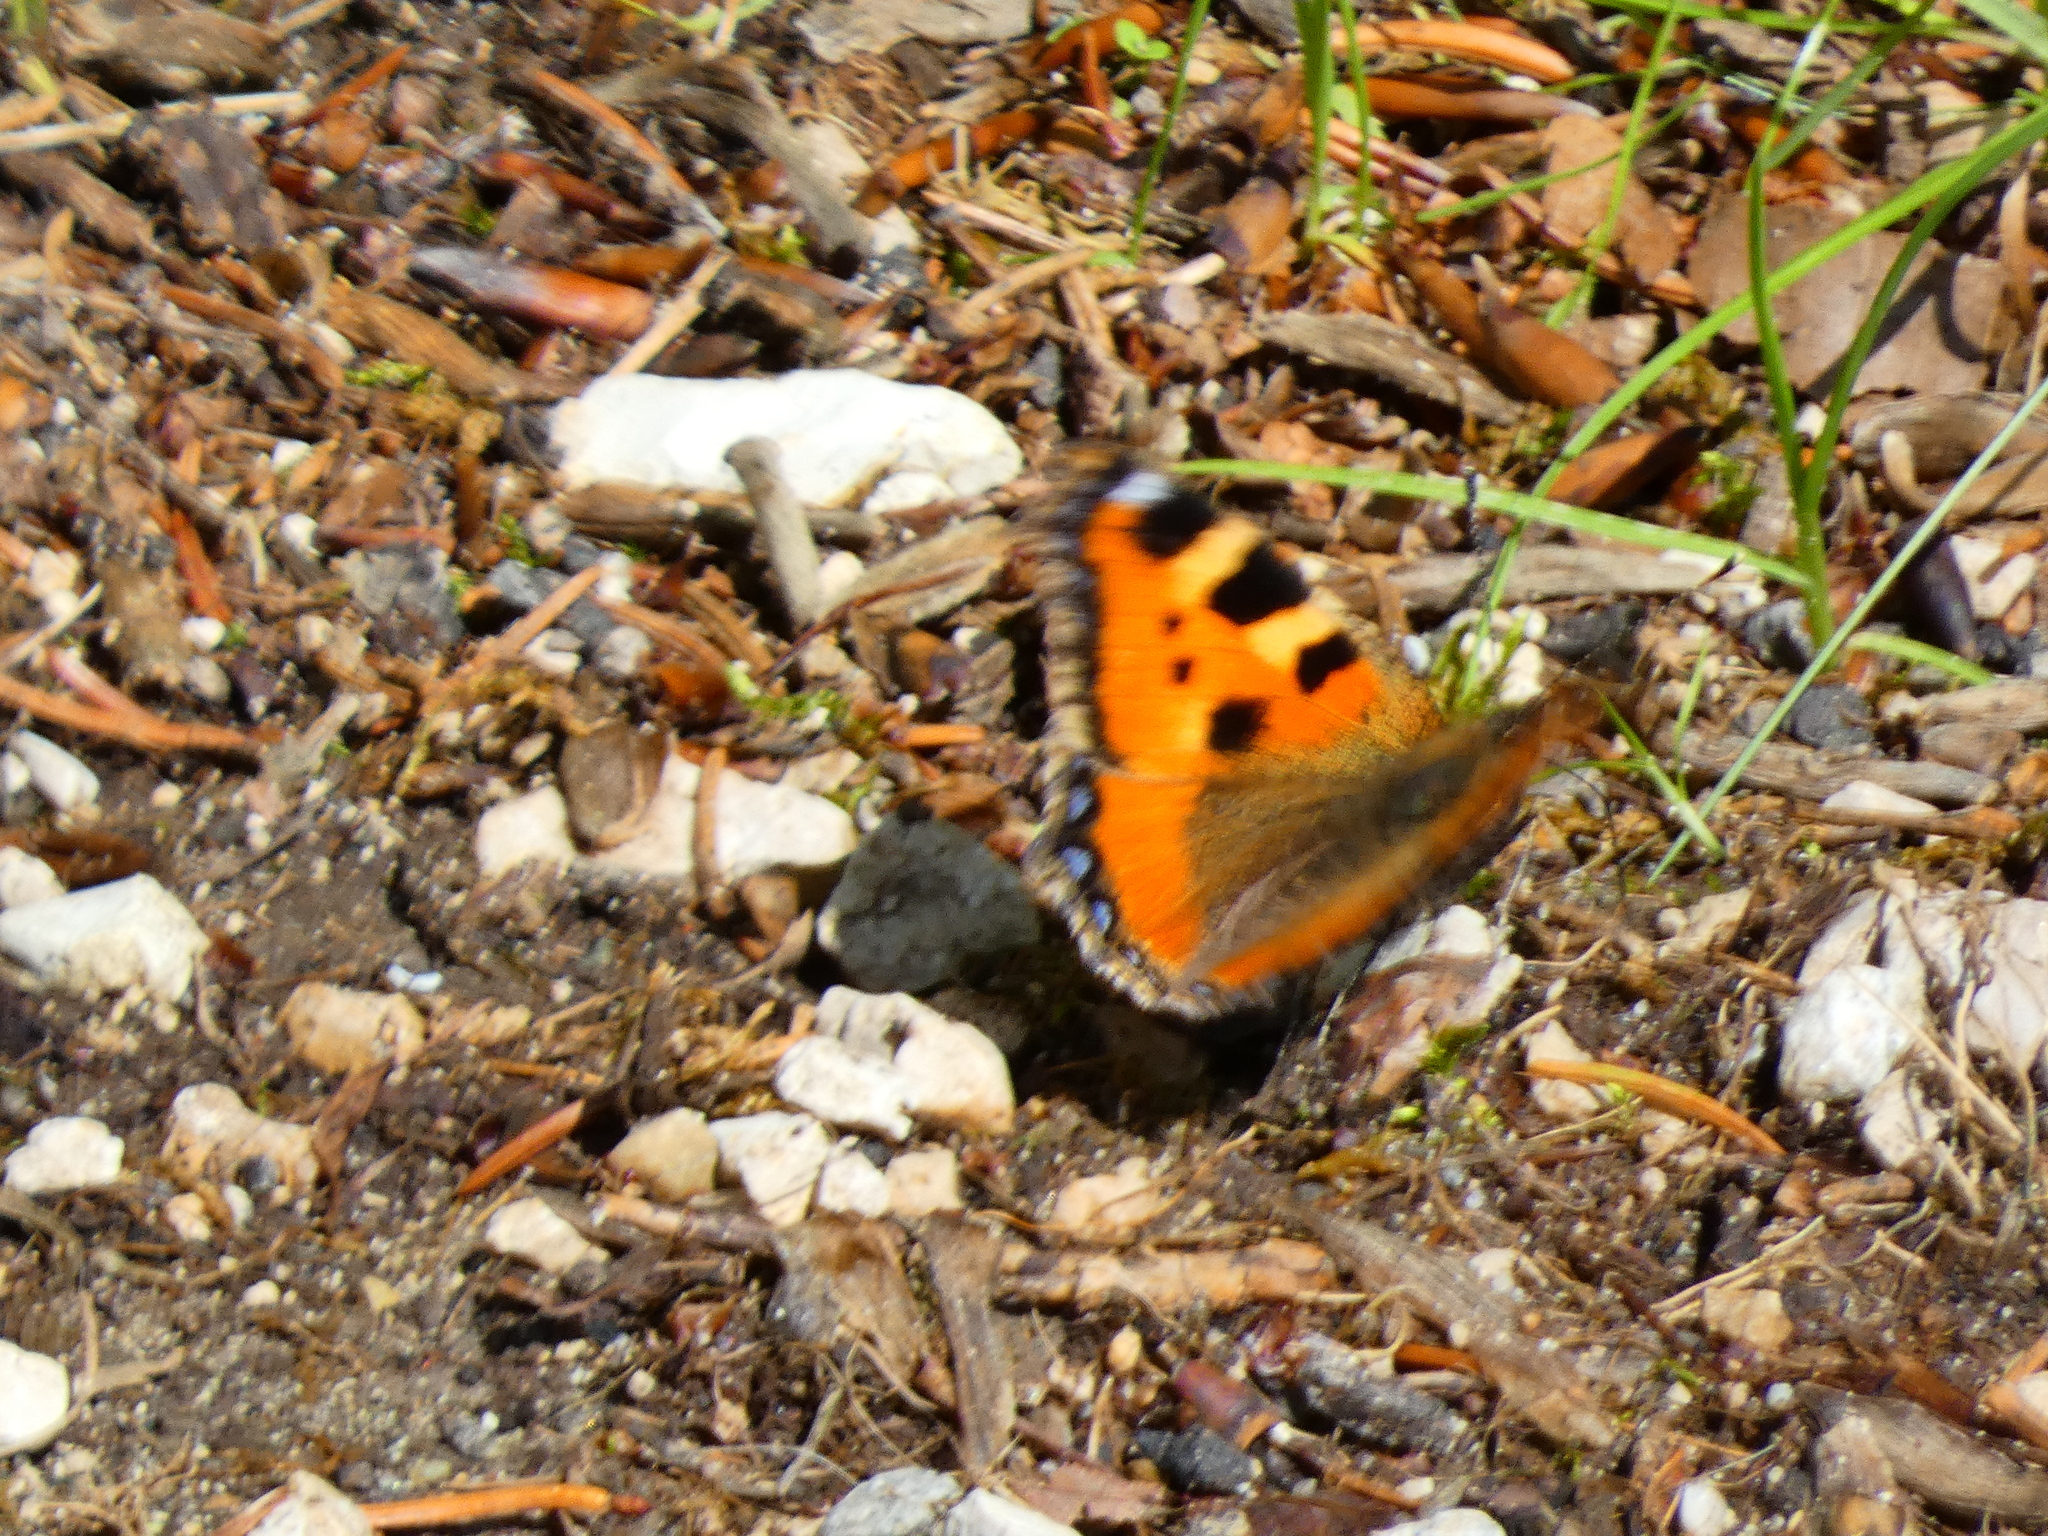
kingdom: Animalia
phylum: Arthropoda
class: Insecta
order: Lepidoptera
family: Nymphalidae
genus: Aglais
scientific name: Aglais urticae
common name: Small tortoiseshell
